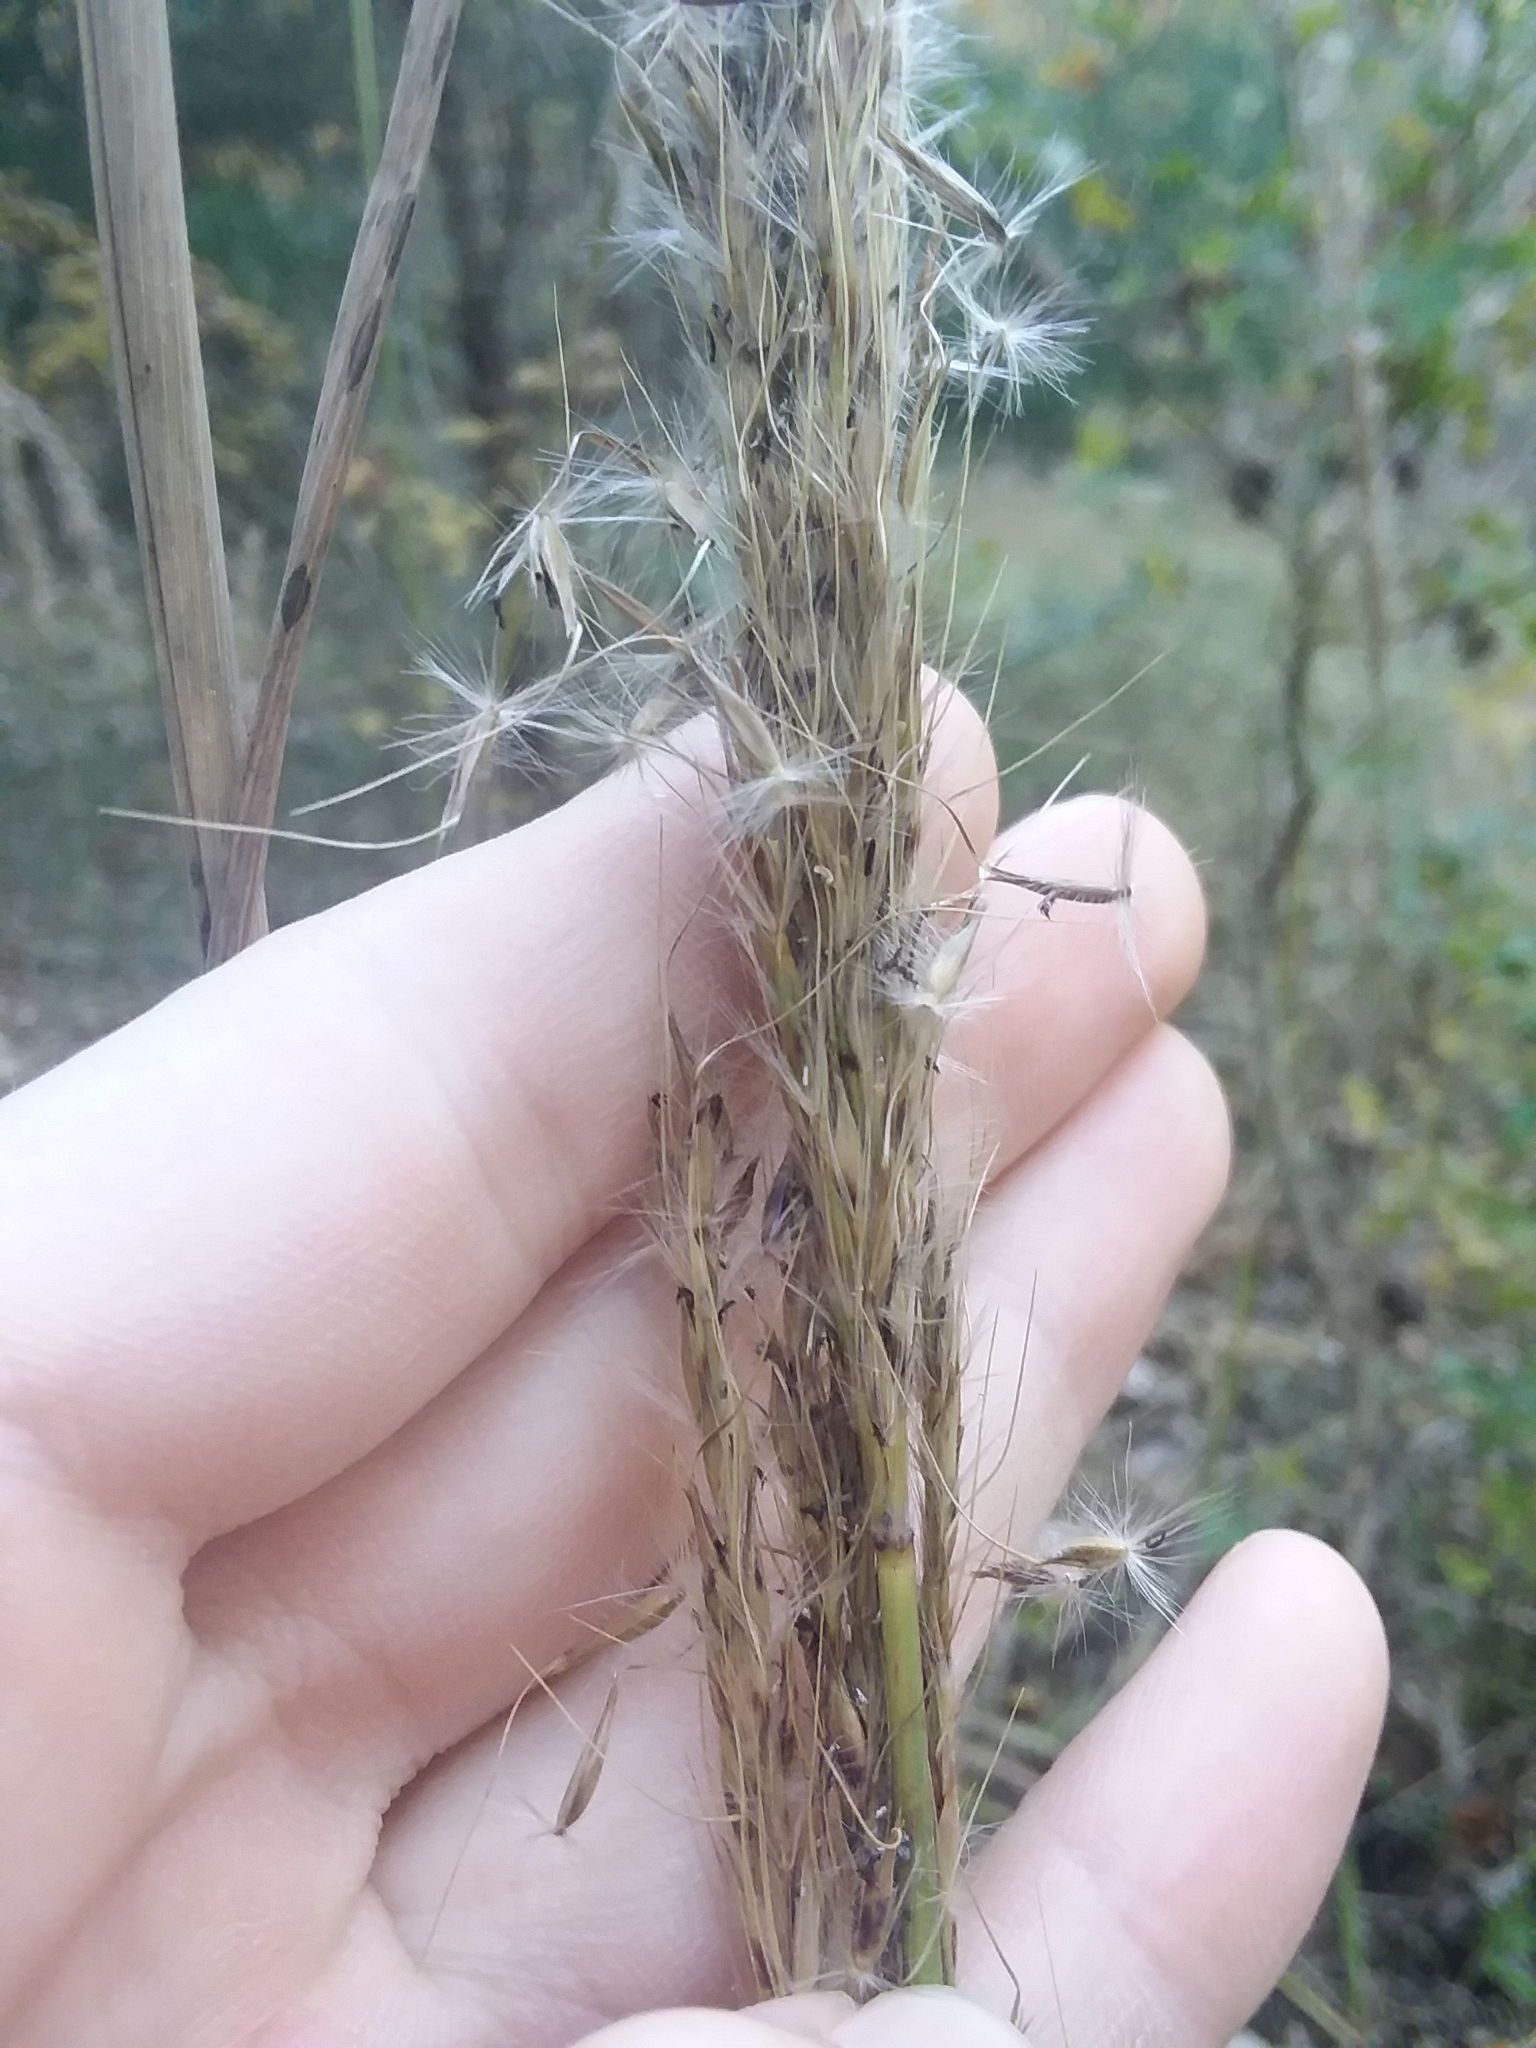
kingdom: Plantae
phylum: Tracheophyta
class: Liliopsida
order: Poales
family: Poaceae
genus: Erianthus
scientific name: Erianthus contortus
